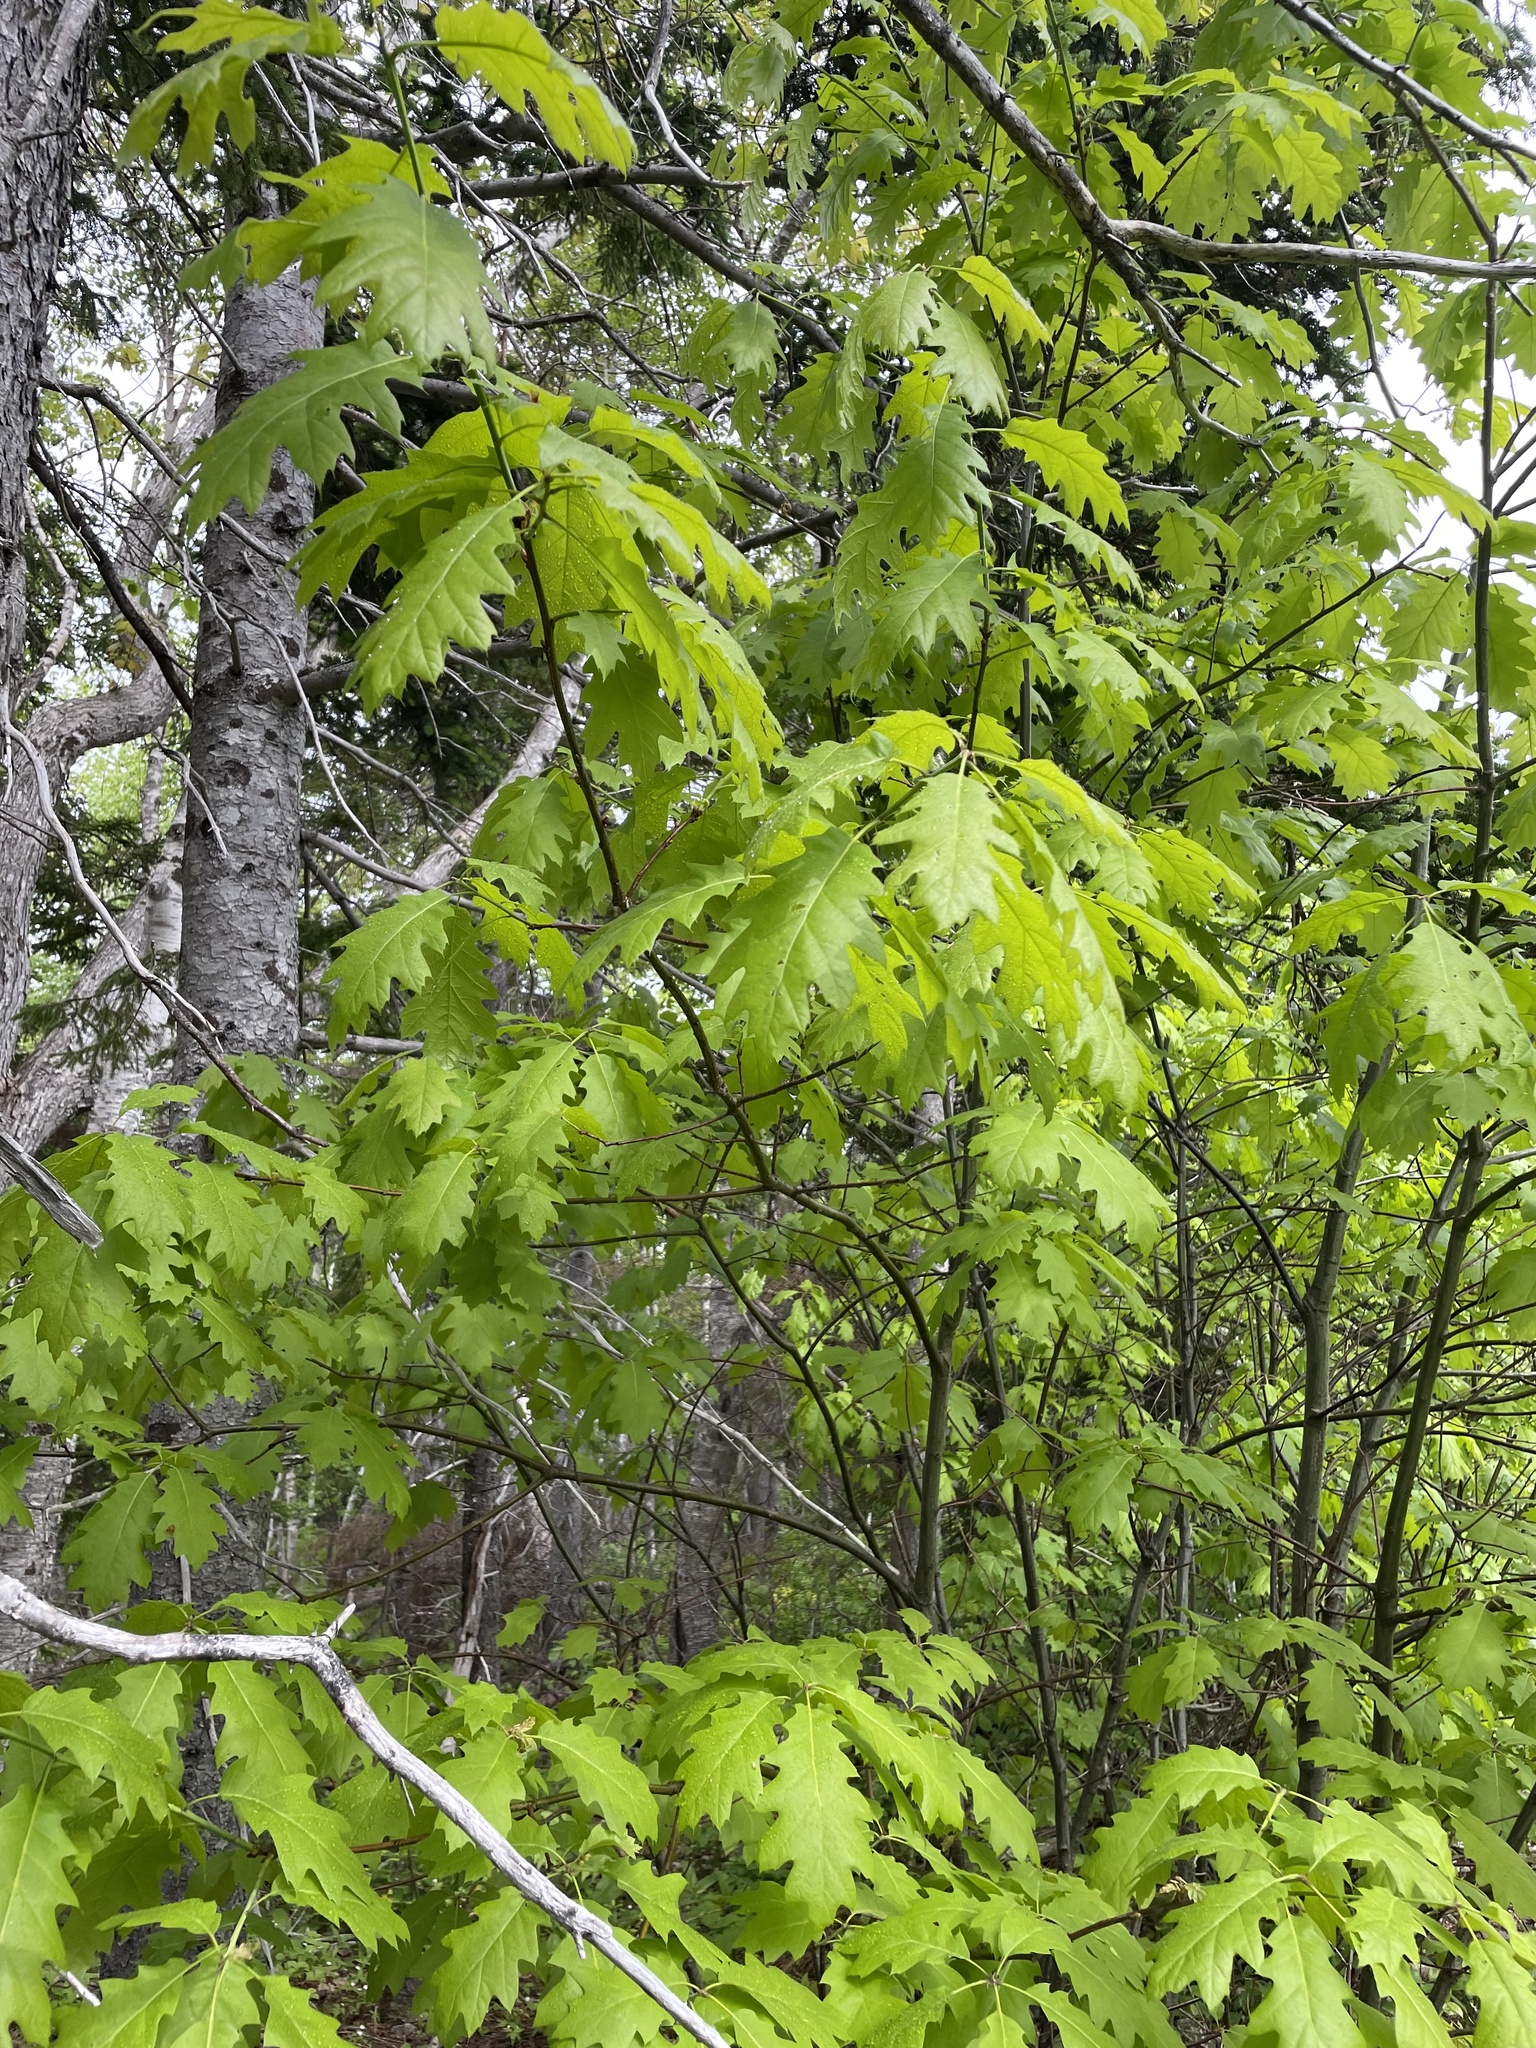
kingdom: Plantae
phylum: Tracheophyta
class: Magnoliopsida
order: Fagales
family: Fagaceae
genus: Quercus
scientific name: Quercus rubra
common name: Red oak
